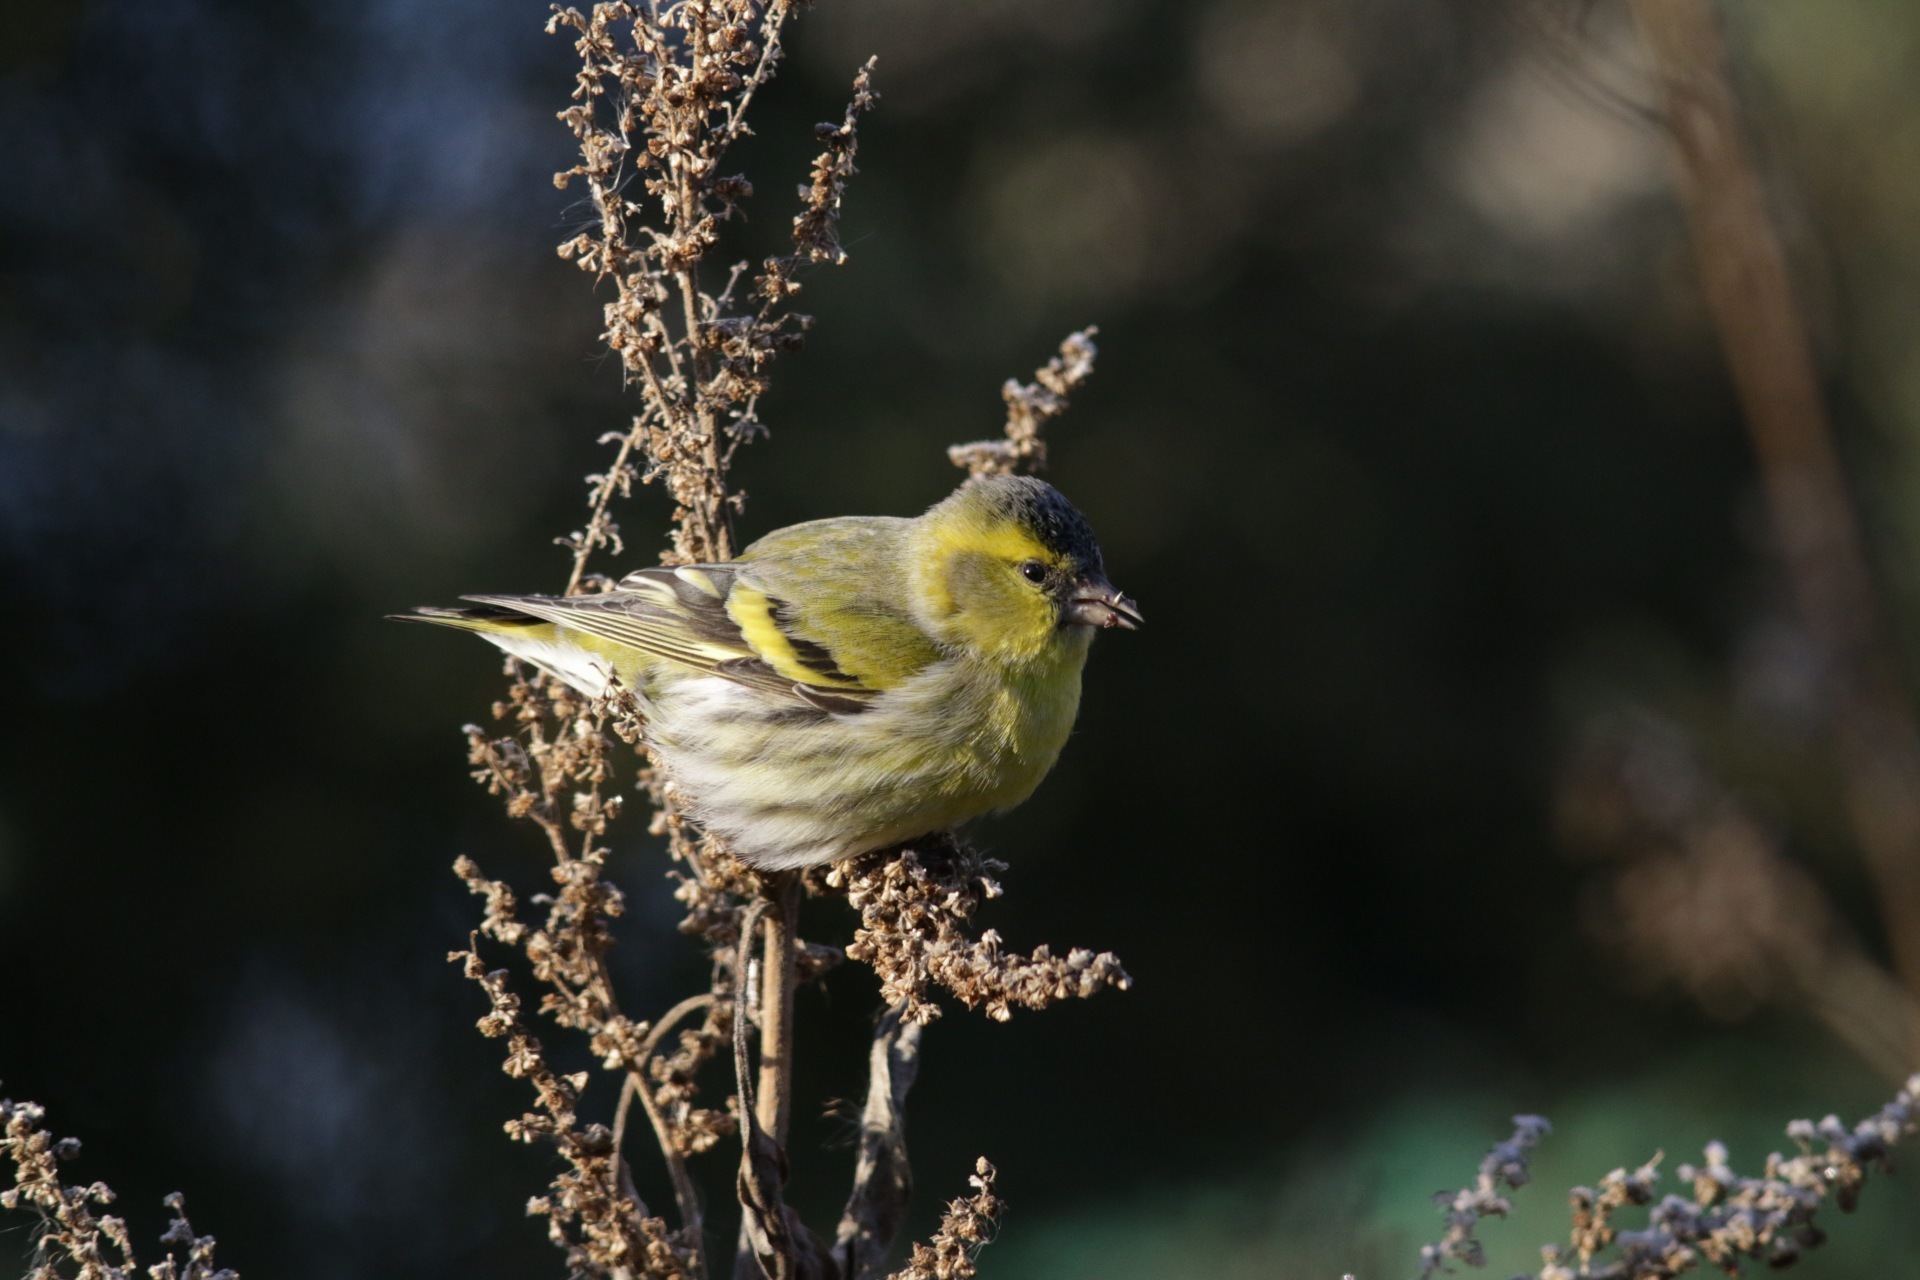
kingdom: Animalia
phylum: Chordata
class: Aves
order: Passeriformes
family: Fringillidae
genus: Spinus
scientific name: Spinus spinus
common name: Eurasian siskin
